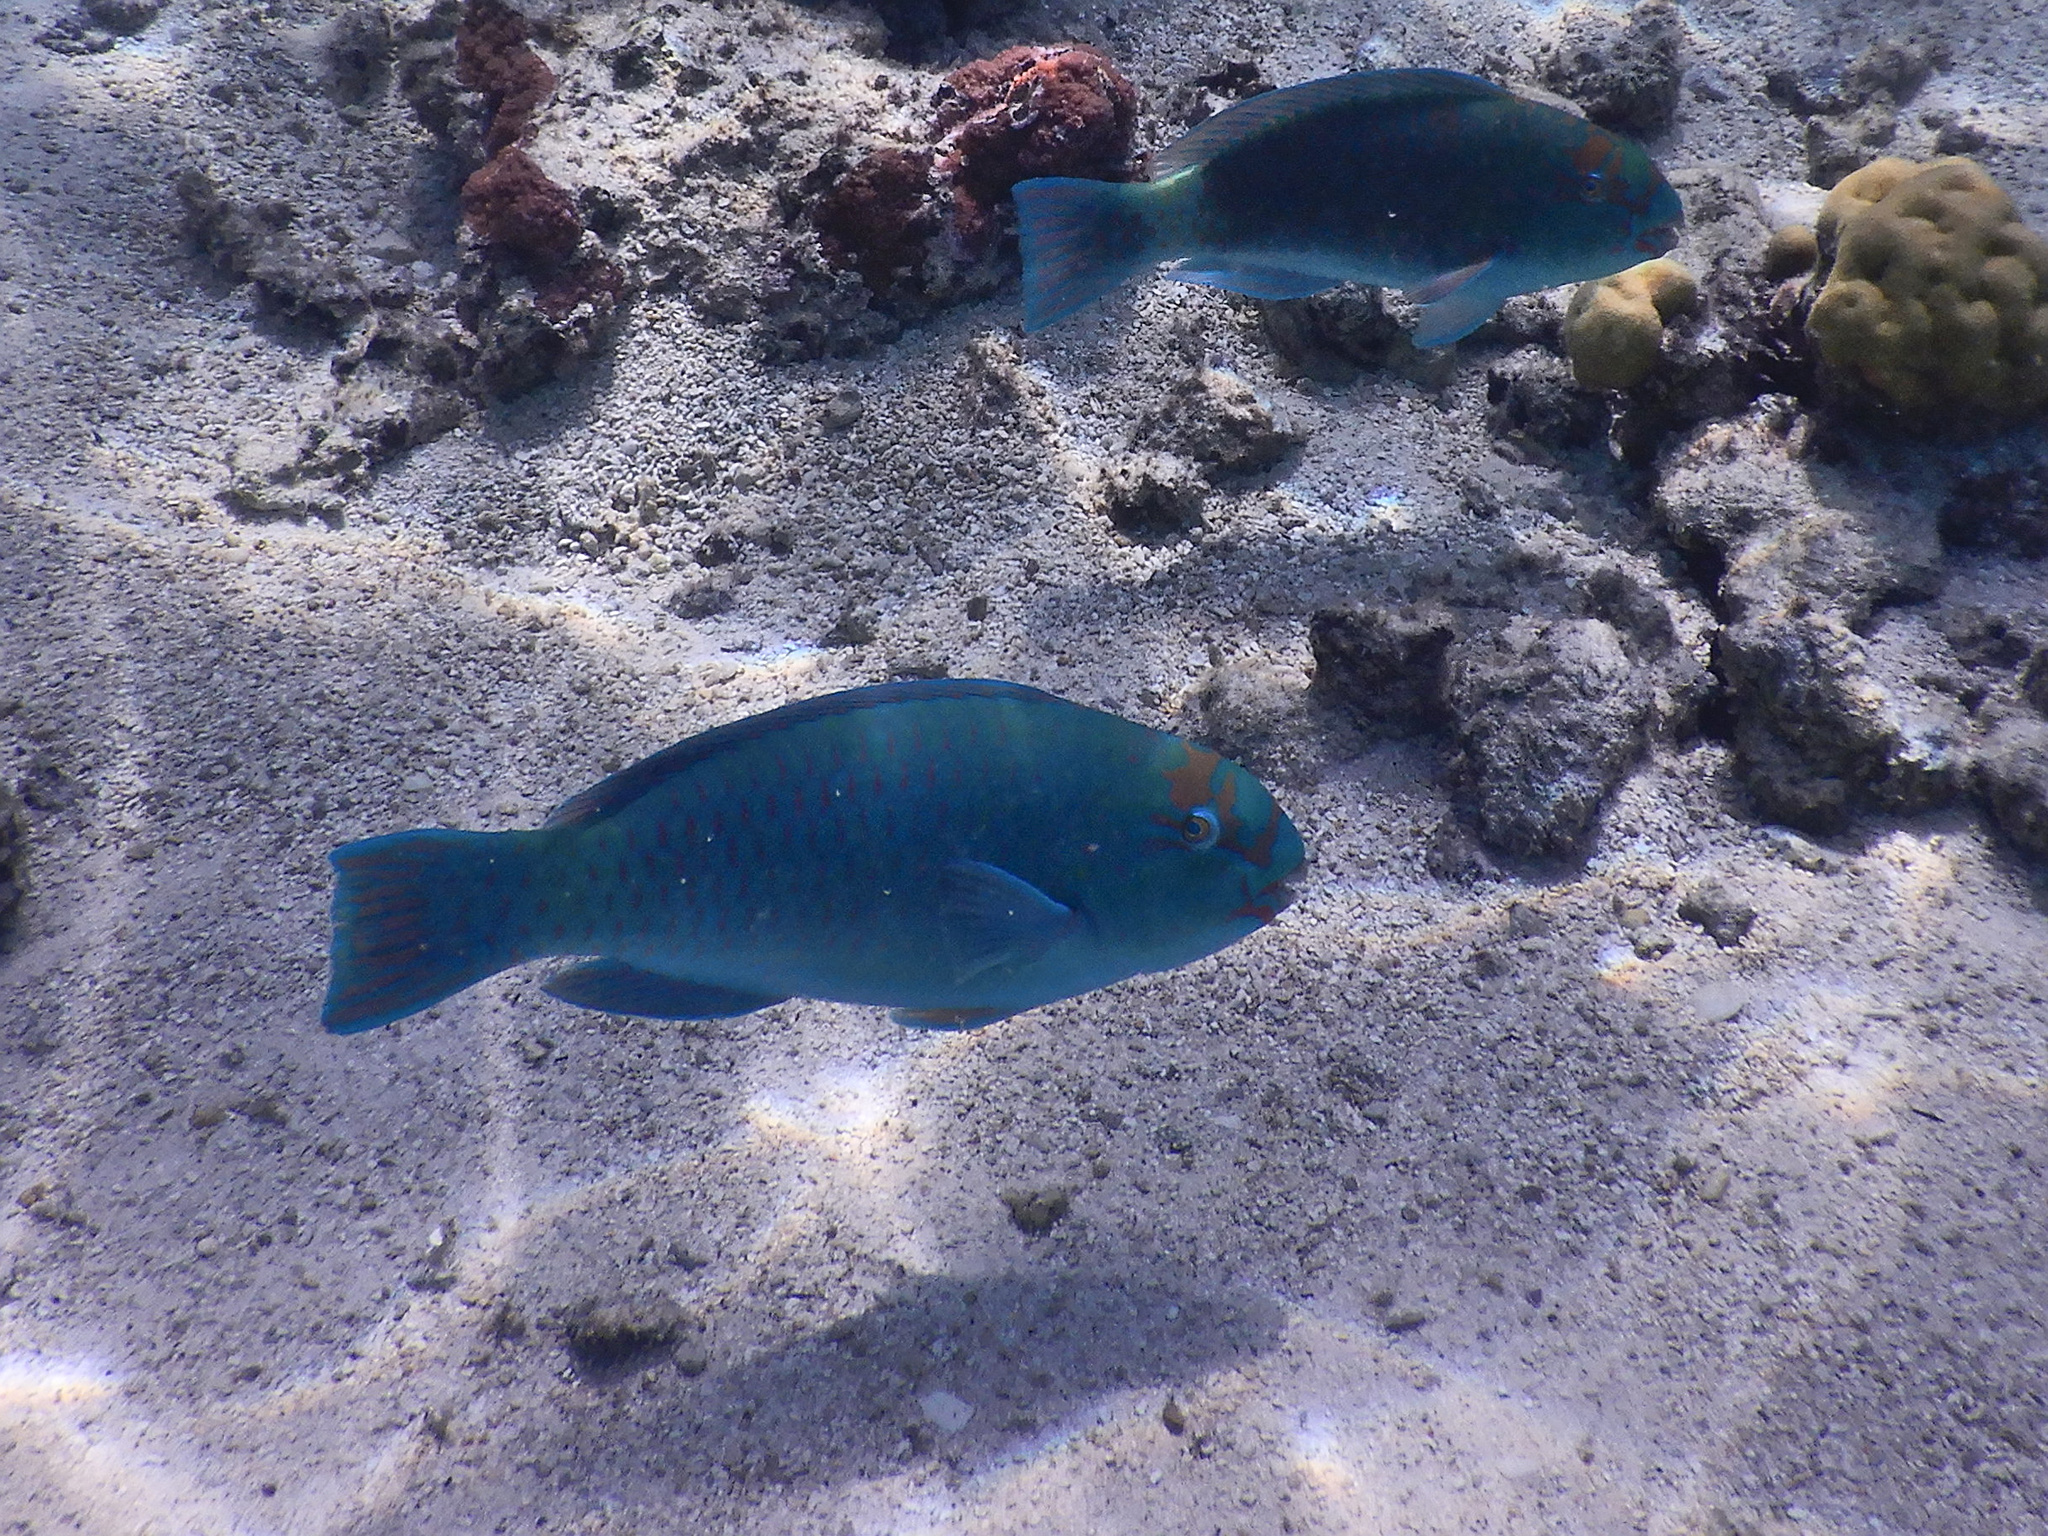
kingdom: Animalia
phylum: Chordata
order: Perciformes
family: Scaridae
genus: Chlorurus
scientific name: Chlorurus frontalis
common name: Reefcrest parrotfish
